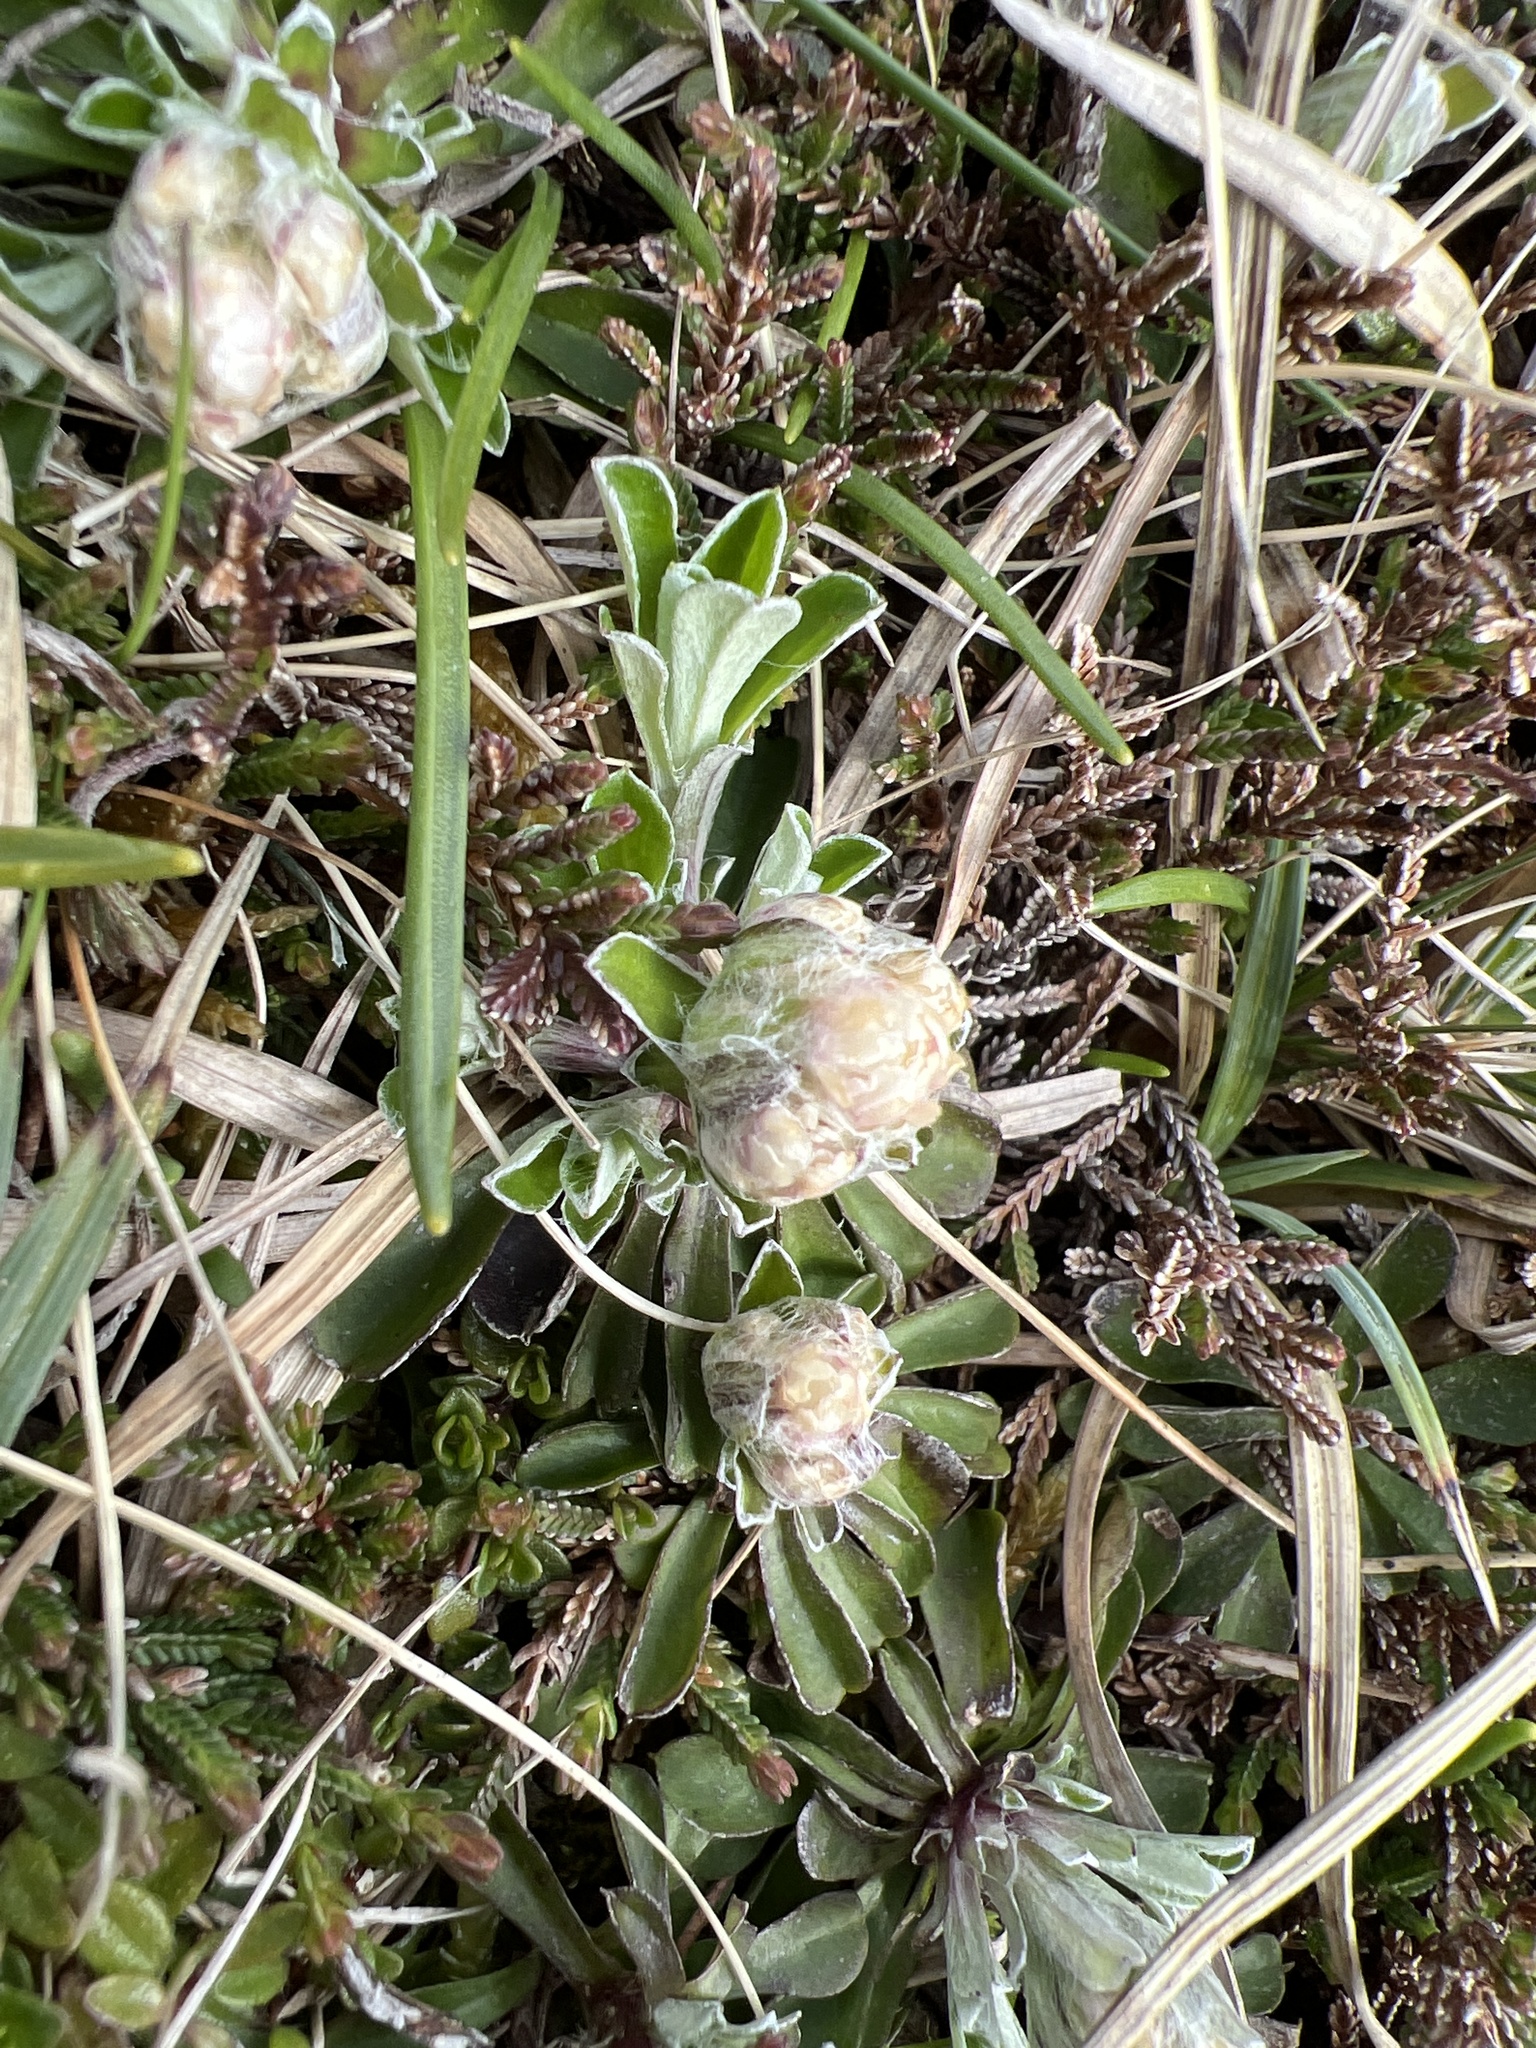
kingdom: Plantae
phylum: Tracheophyta
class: Magnoliopsida
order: Asterales
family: Asteraceae
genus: Antennaria
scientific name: Antennaria dioica
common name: Mountain everlasting
